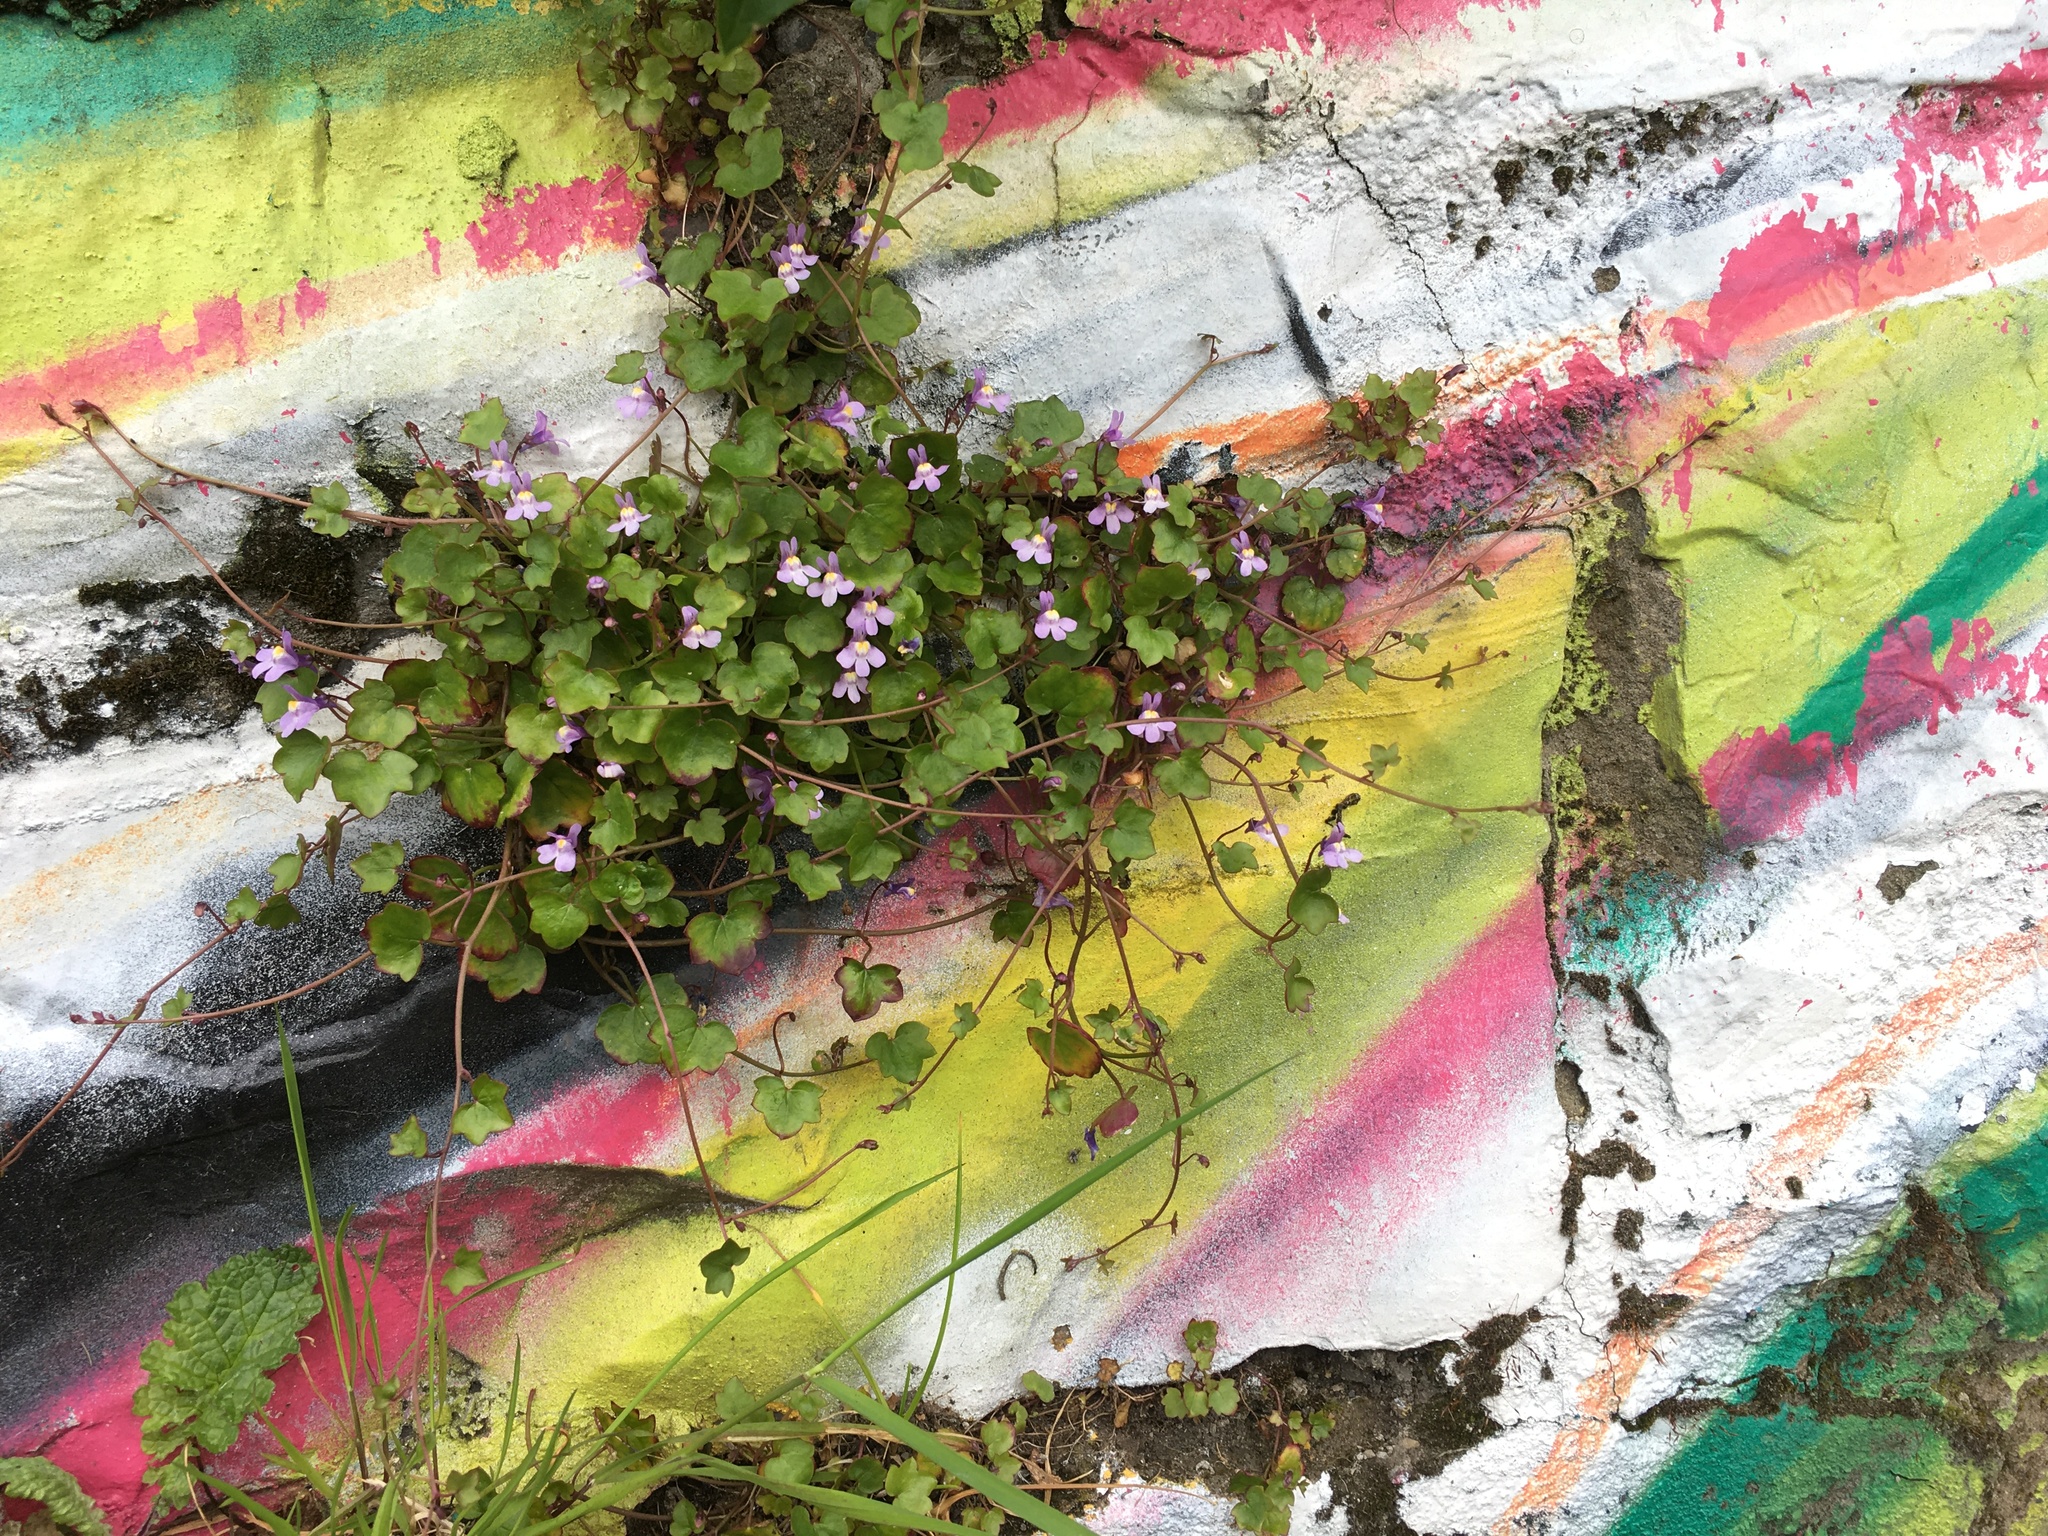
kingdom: Plantae
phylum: Tracheophyta
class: Magnoliopsida
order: Lamiales
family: Plantaginaceae
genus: Cymbalaria
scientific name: Cymbalaria muralis
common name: Ivy-leaved toadflax
